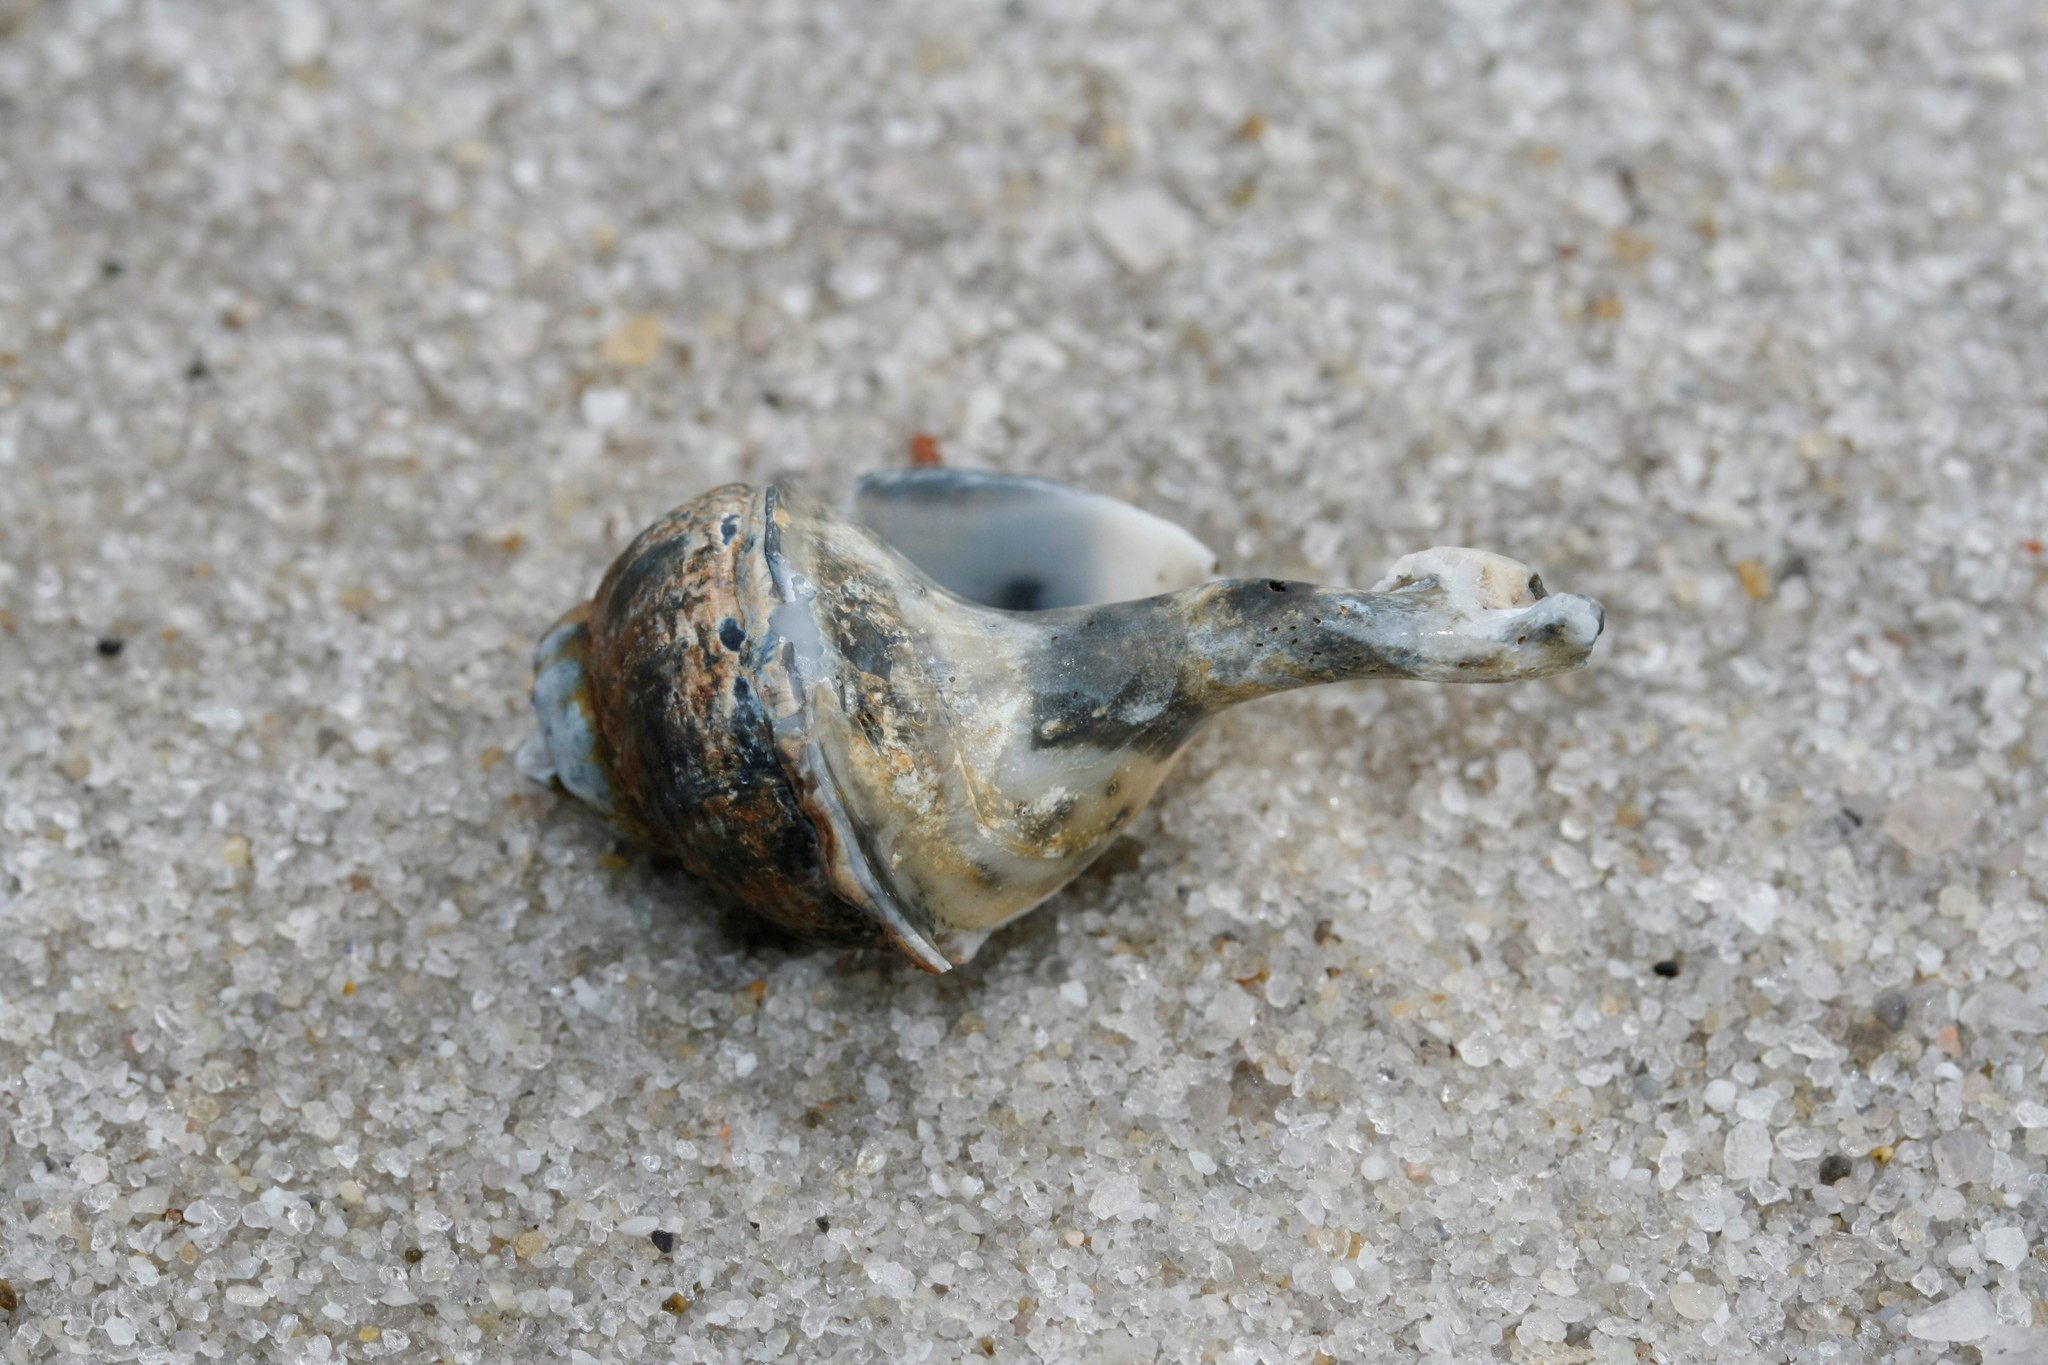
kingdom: Animalia
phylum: Mollusca
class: Gastropoda
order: Neogastropoda
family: Buccinidae
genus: Buccinum
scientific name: Buccinum undatum
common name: Common whelk
